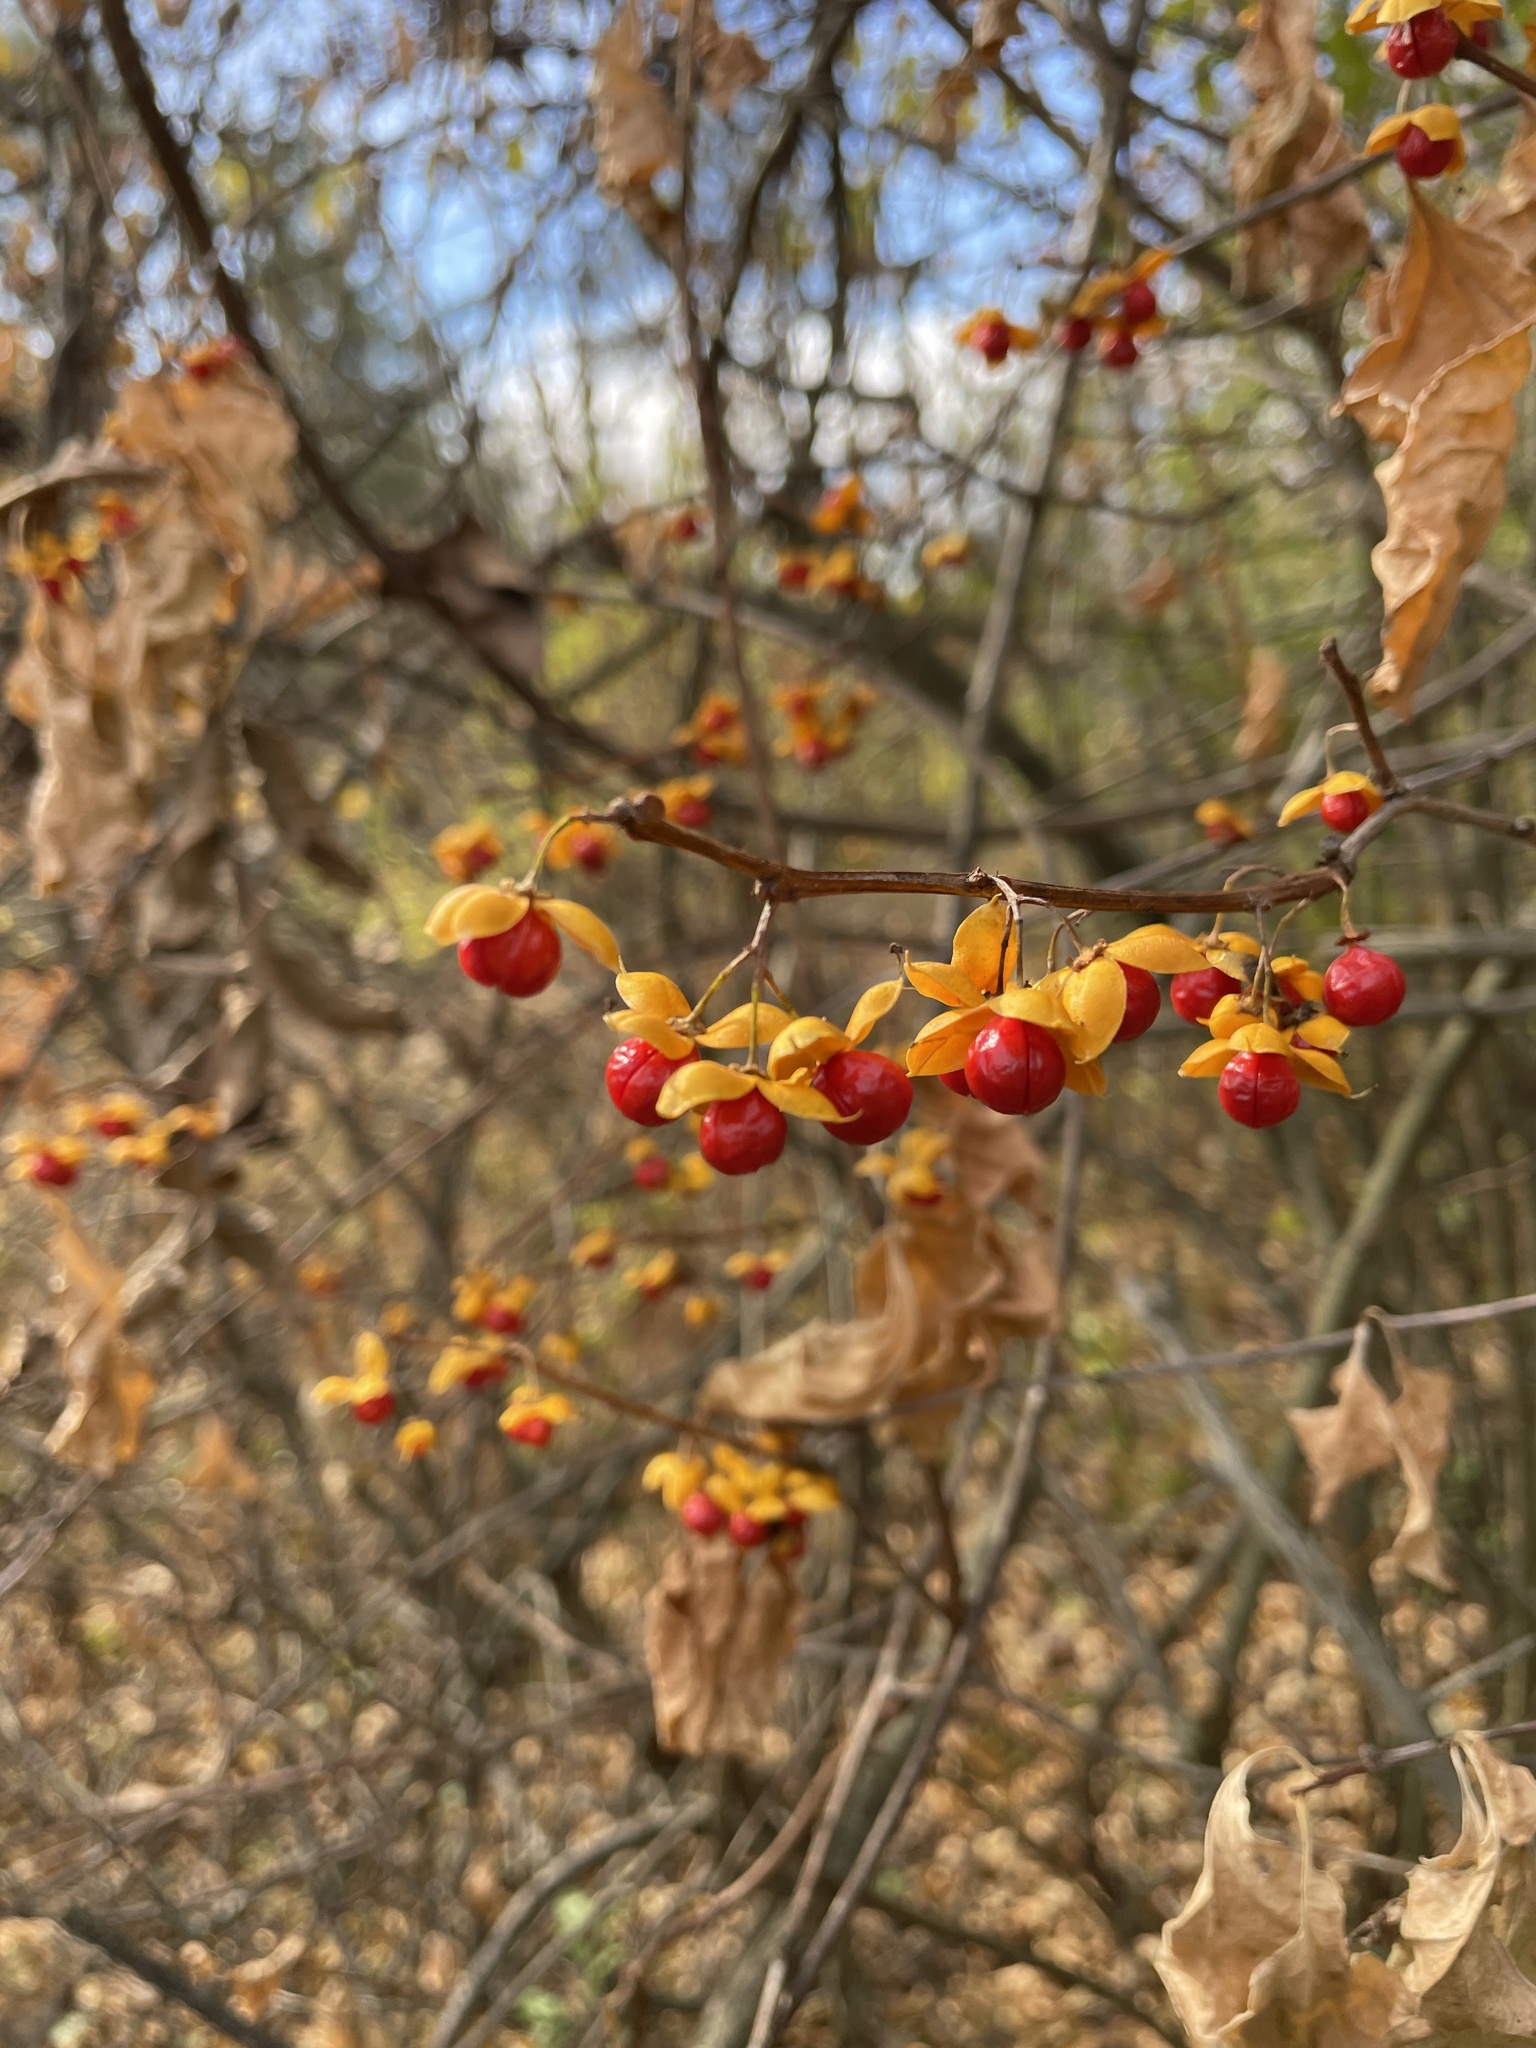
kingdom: Plantae
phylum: Tracheophyta
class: Magnoliopsida
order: Celastrales
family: Celastraceae
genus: Celastrus
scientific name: Celastrus orbiculatus
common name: Oriental bittersweet
